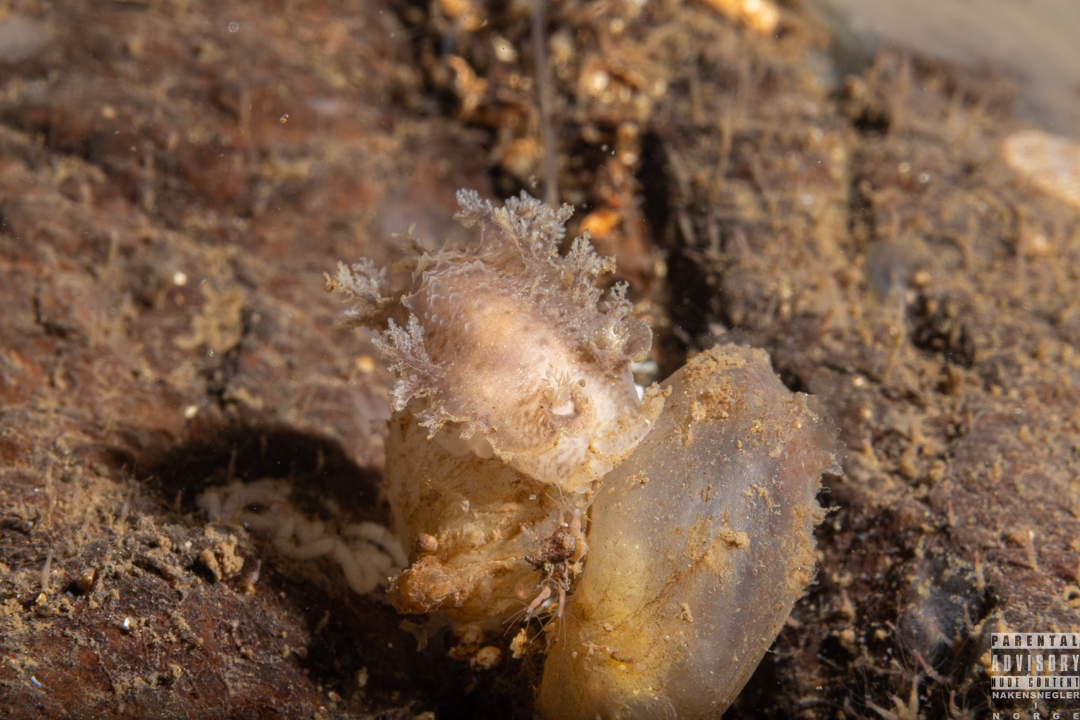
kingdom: Animalia
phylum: Mollusca
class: Gastropoda
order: Nudibranchia
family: Tritoniidae
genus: Duvaucelia
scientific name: Duvaucelia plebeia
